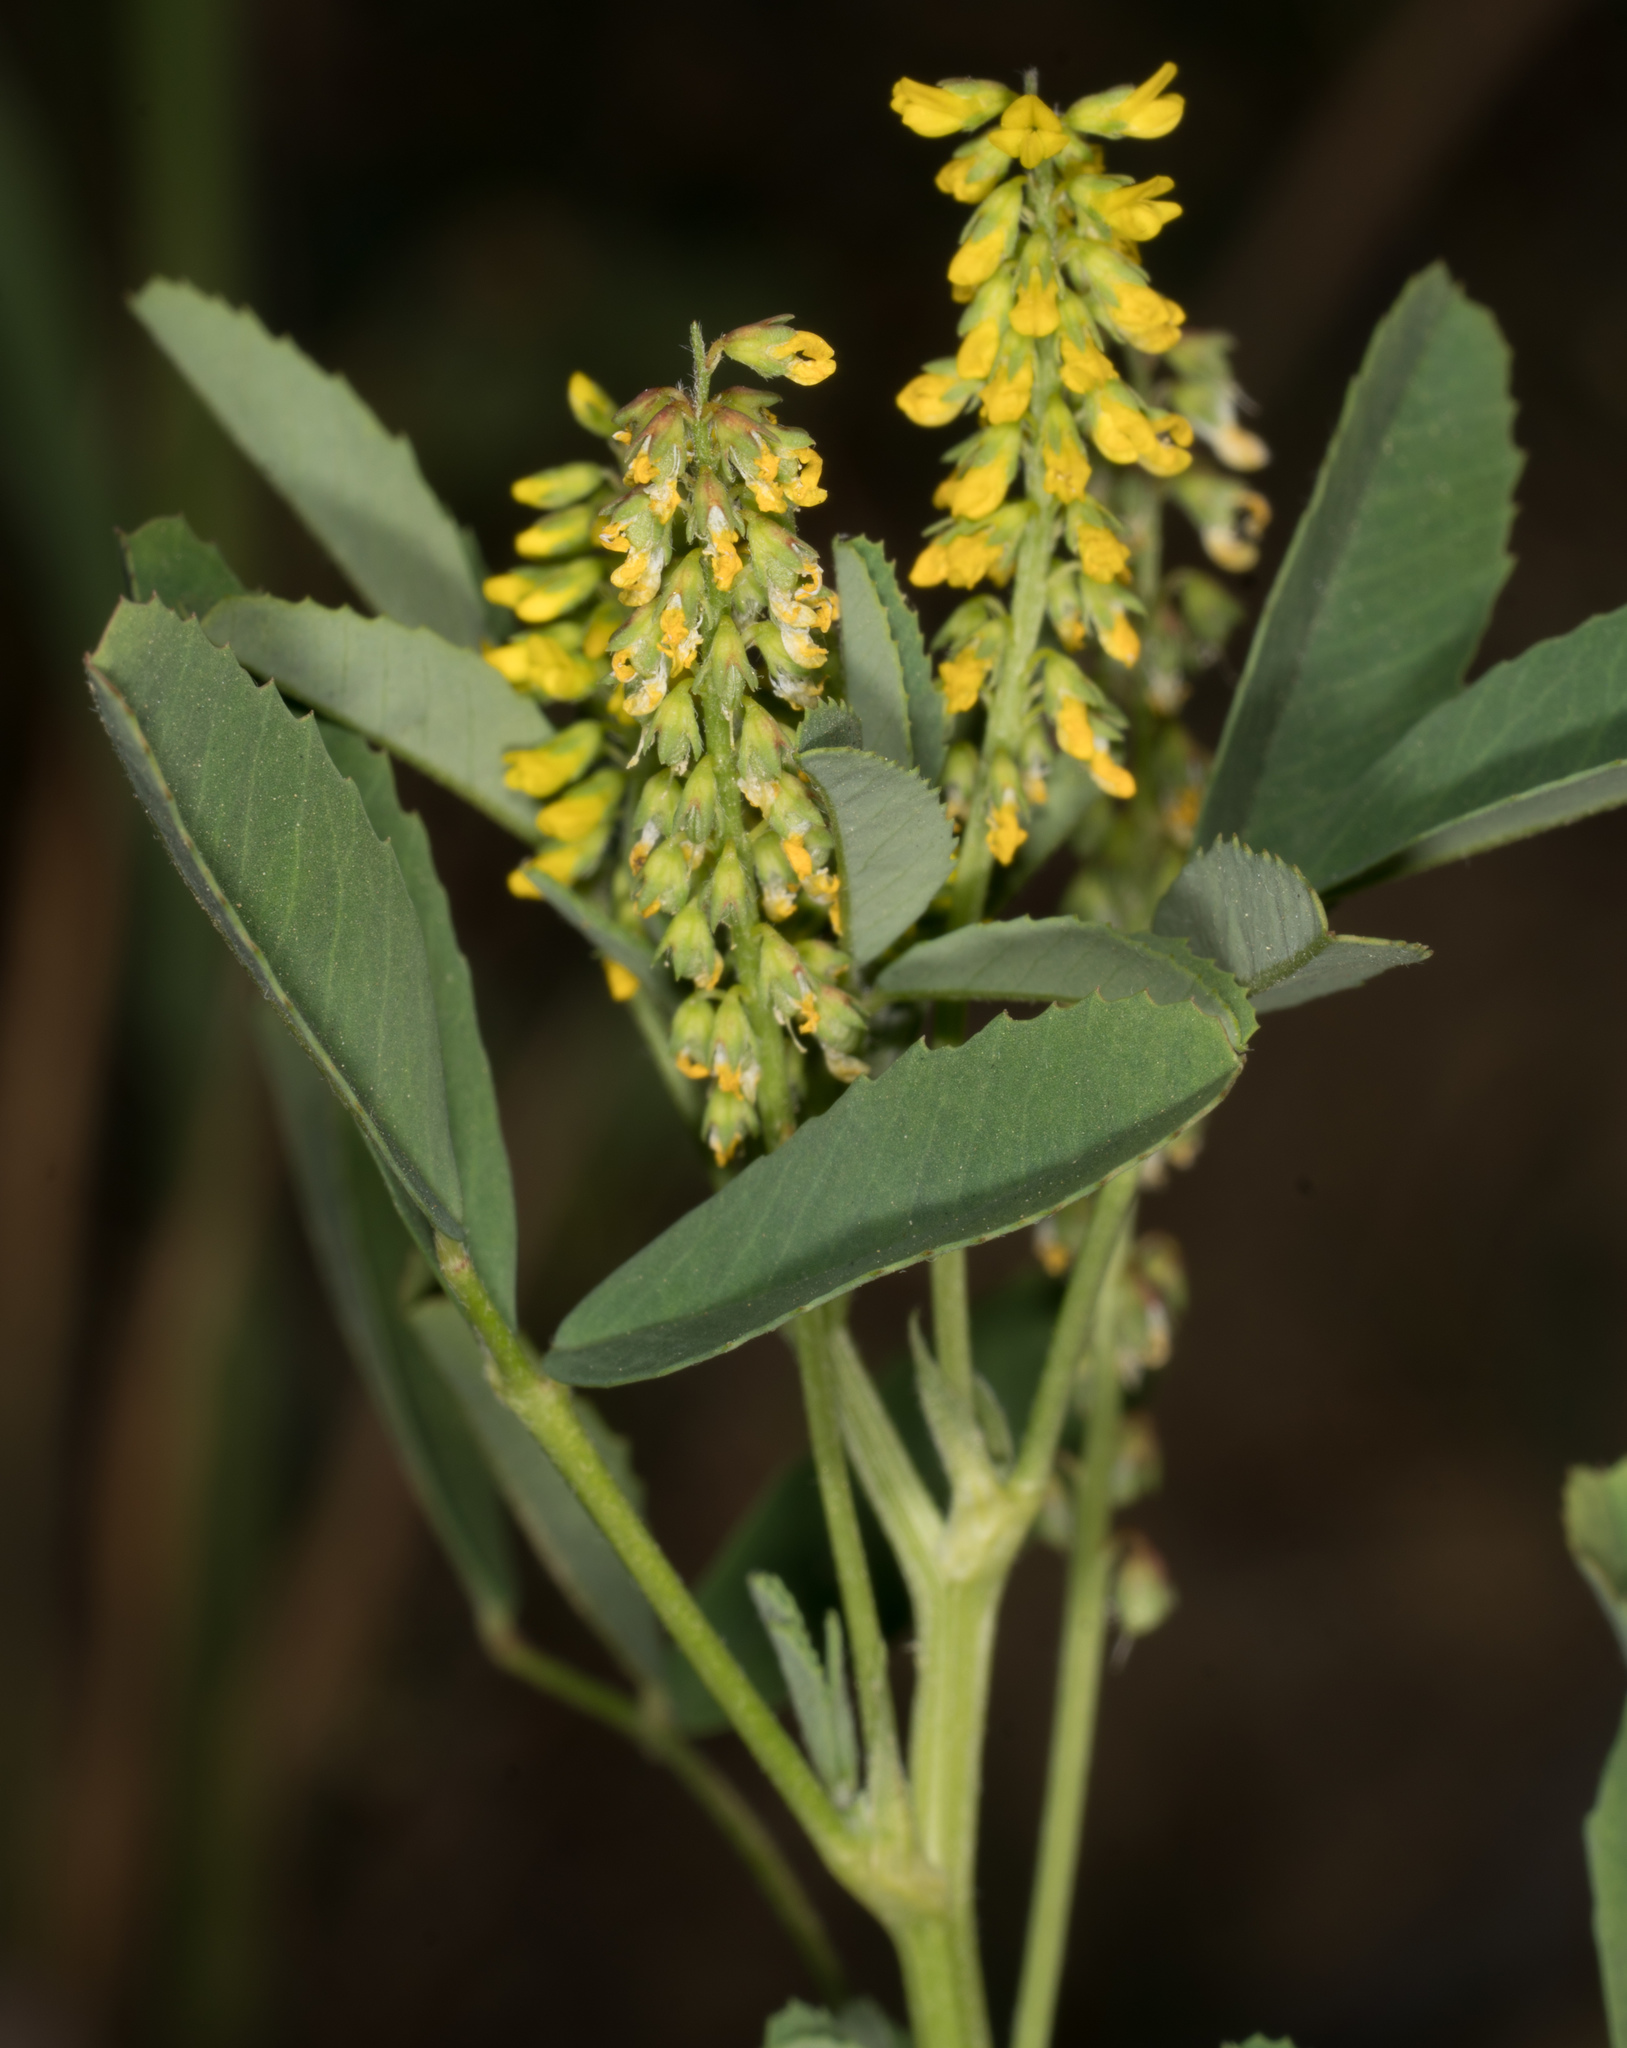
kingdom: Plantae
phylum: Tracheophyta
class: Magnoliopsida
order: Fabales
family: Fabaceae
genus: Melilotus
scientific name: Melilotus indicus
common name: Small melilot
